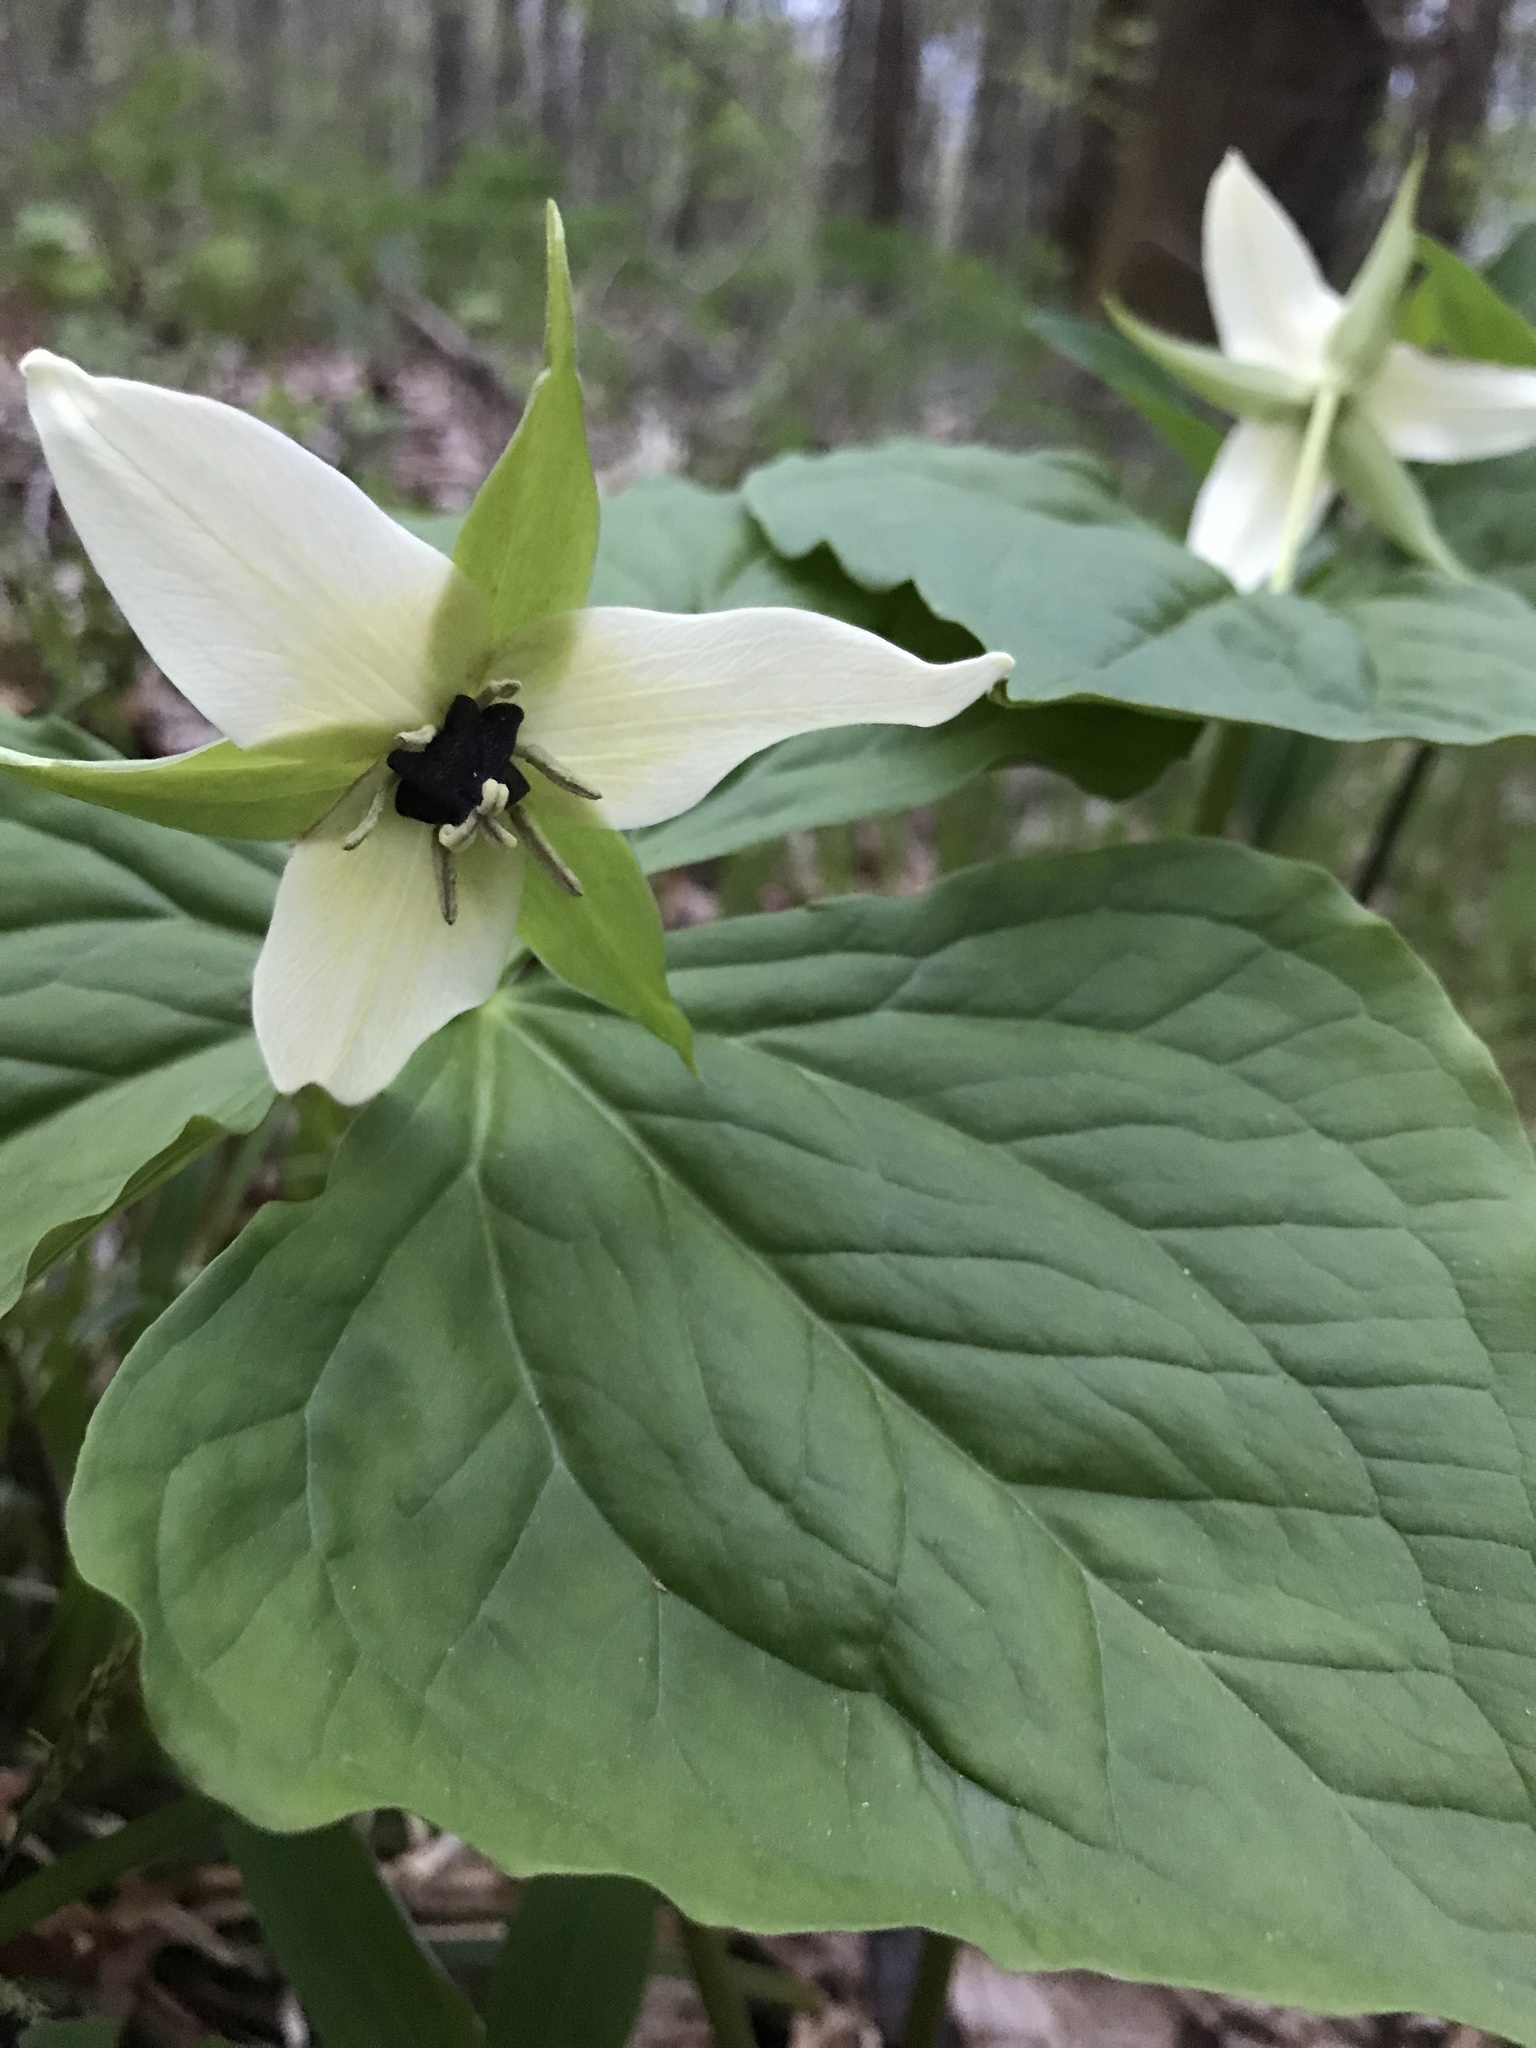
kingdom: Plantae
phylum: Tracheophyta
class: Liliopsida
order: Liliales
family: Melanthiaceae
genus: Trillium
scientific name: Trillium erectum
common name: Purple trillium
